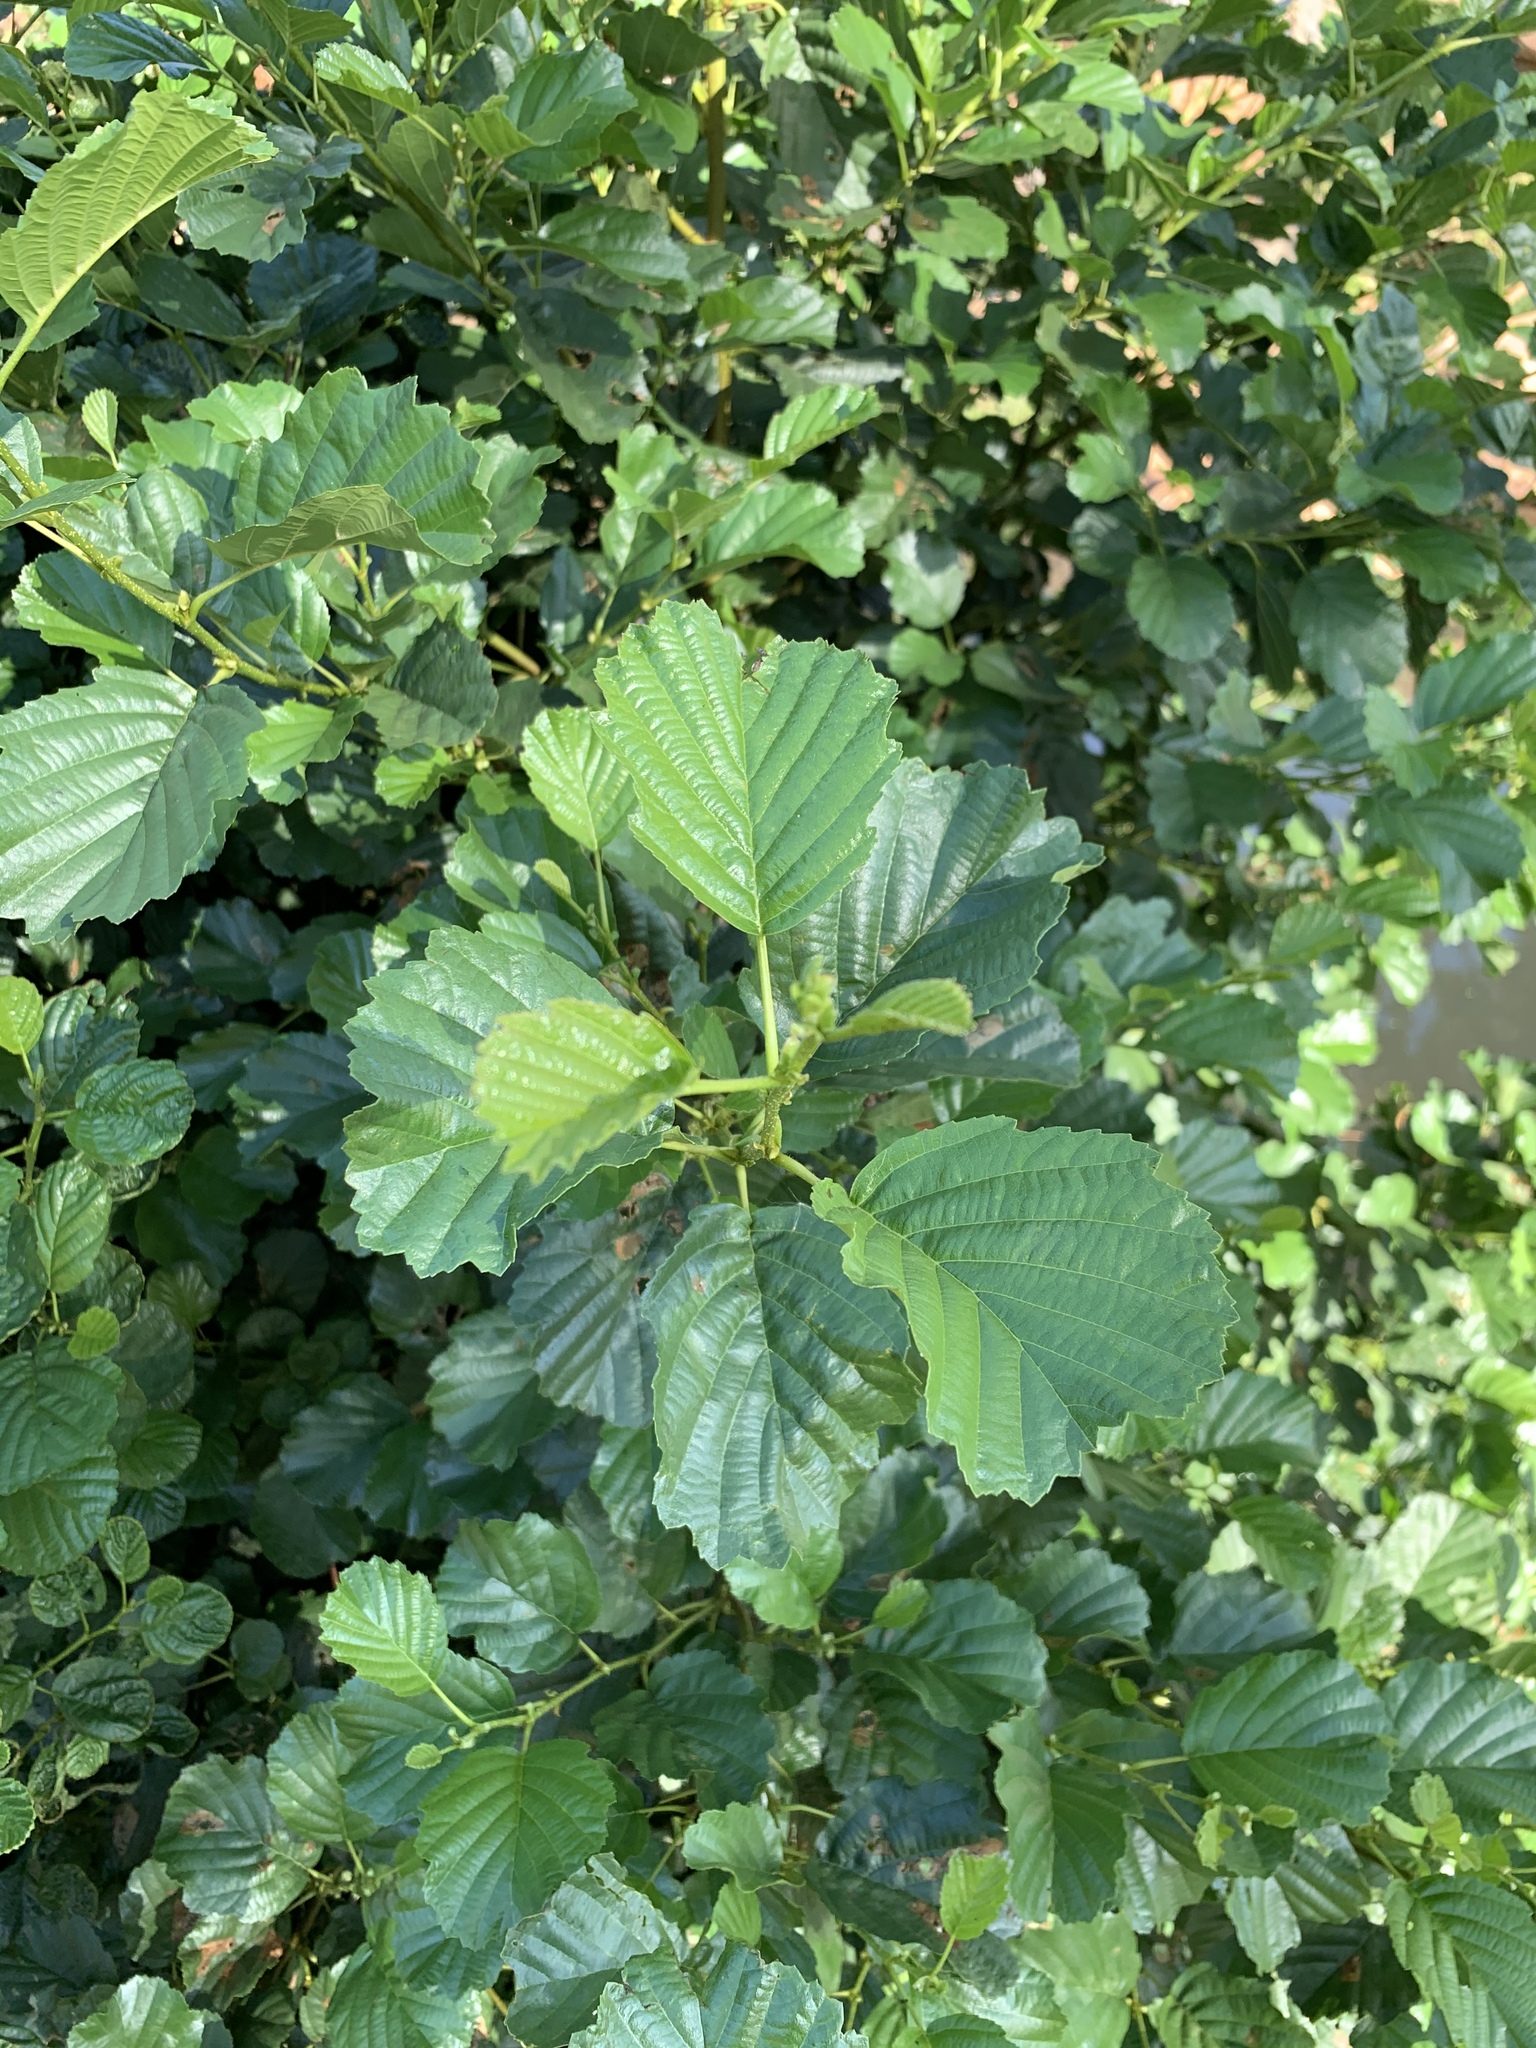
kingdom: Plantae
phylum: Tracheophyta
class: Magnoliopsida
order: Fagales
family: Betulaceae
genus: Alnus
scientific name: Alnus glutinosa
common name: Black alder
